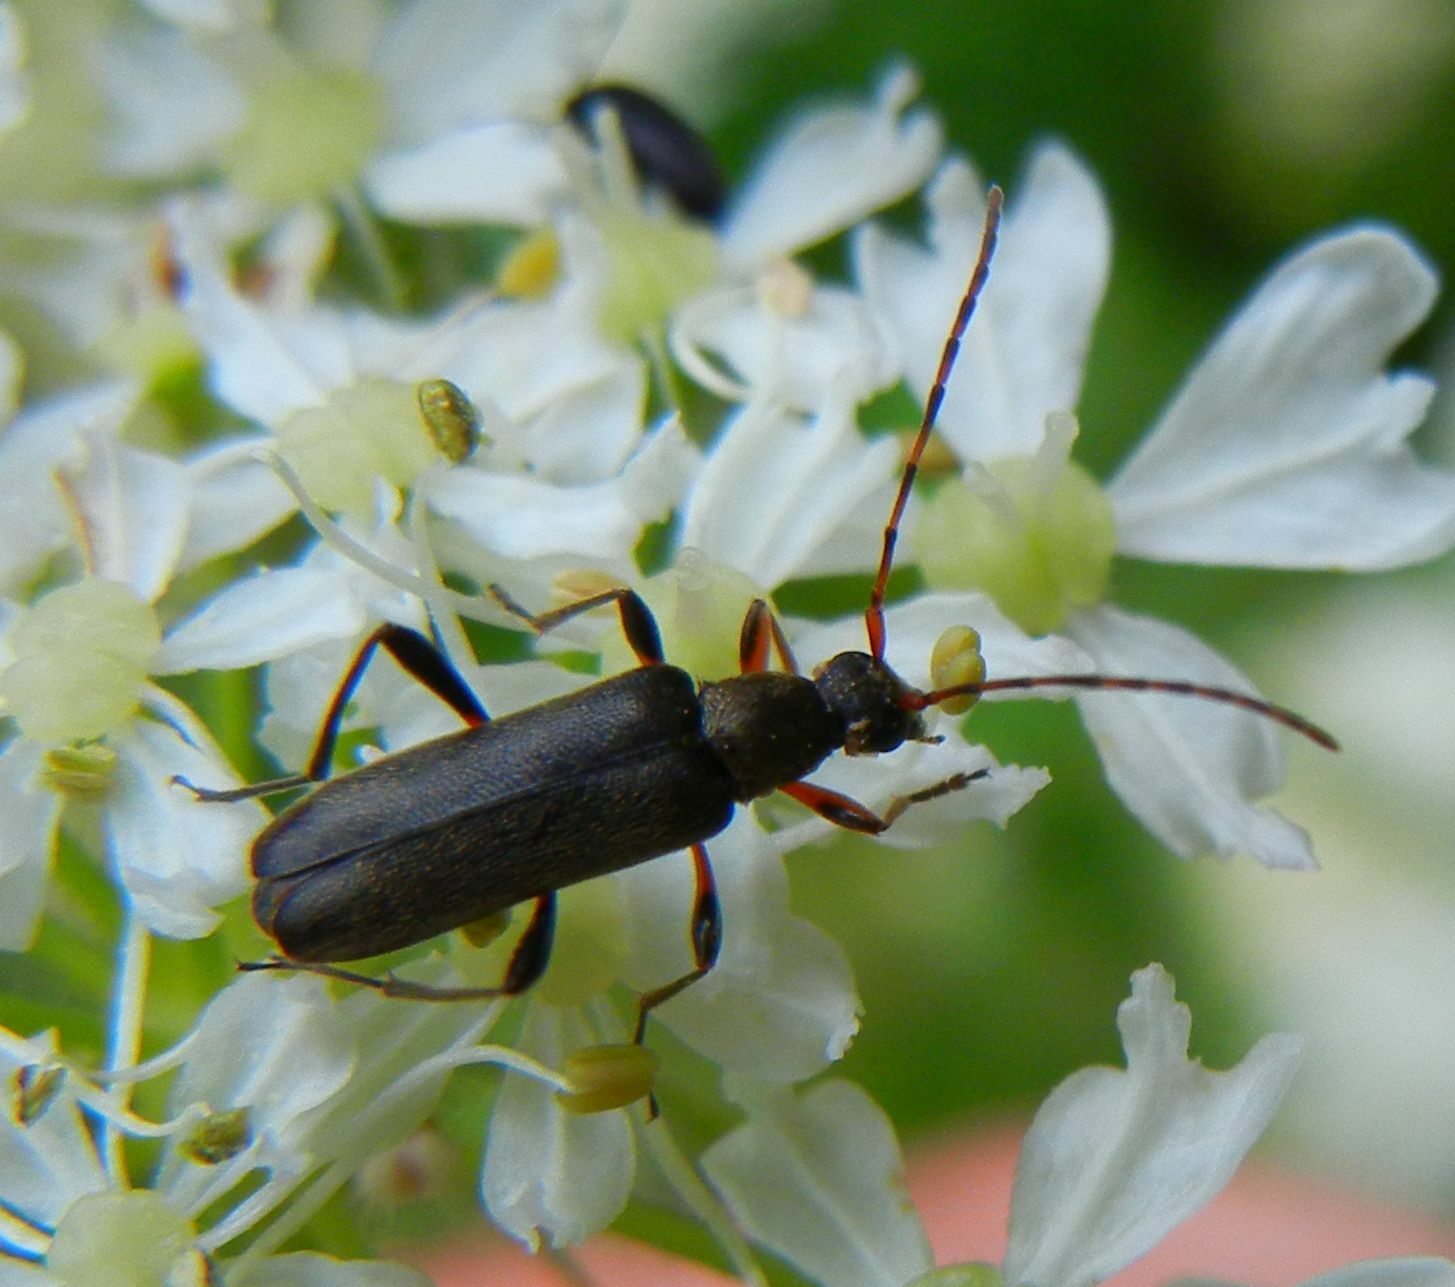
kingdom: Animalia
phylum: Arthropoda
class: Insecta
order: Coleoptera
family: Cerambycidae
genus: Grammoptera
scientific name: Grammoptera ruficornis
